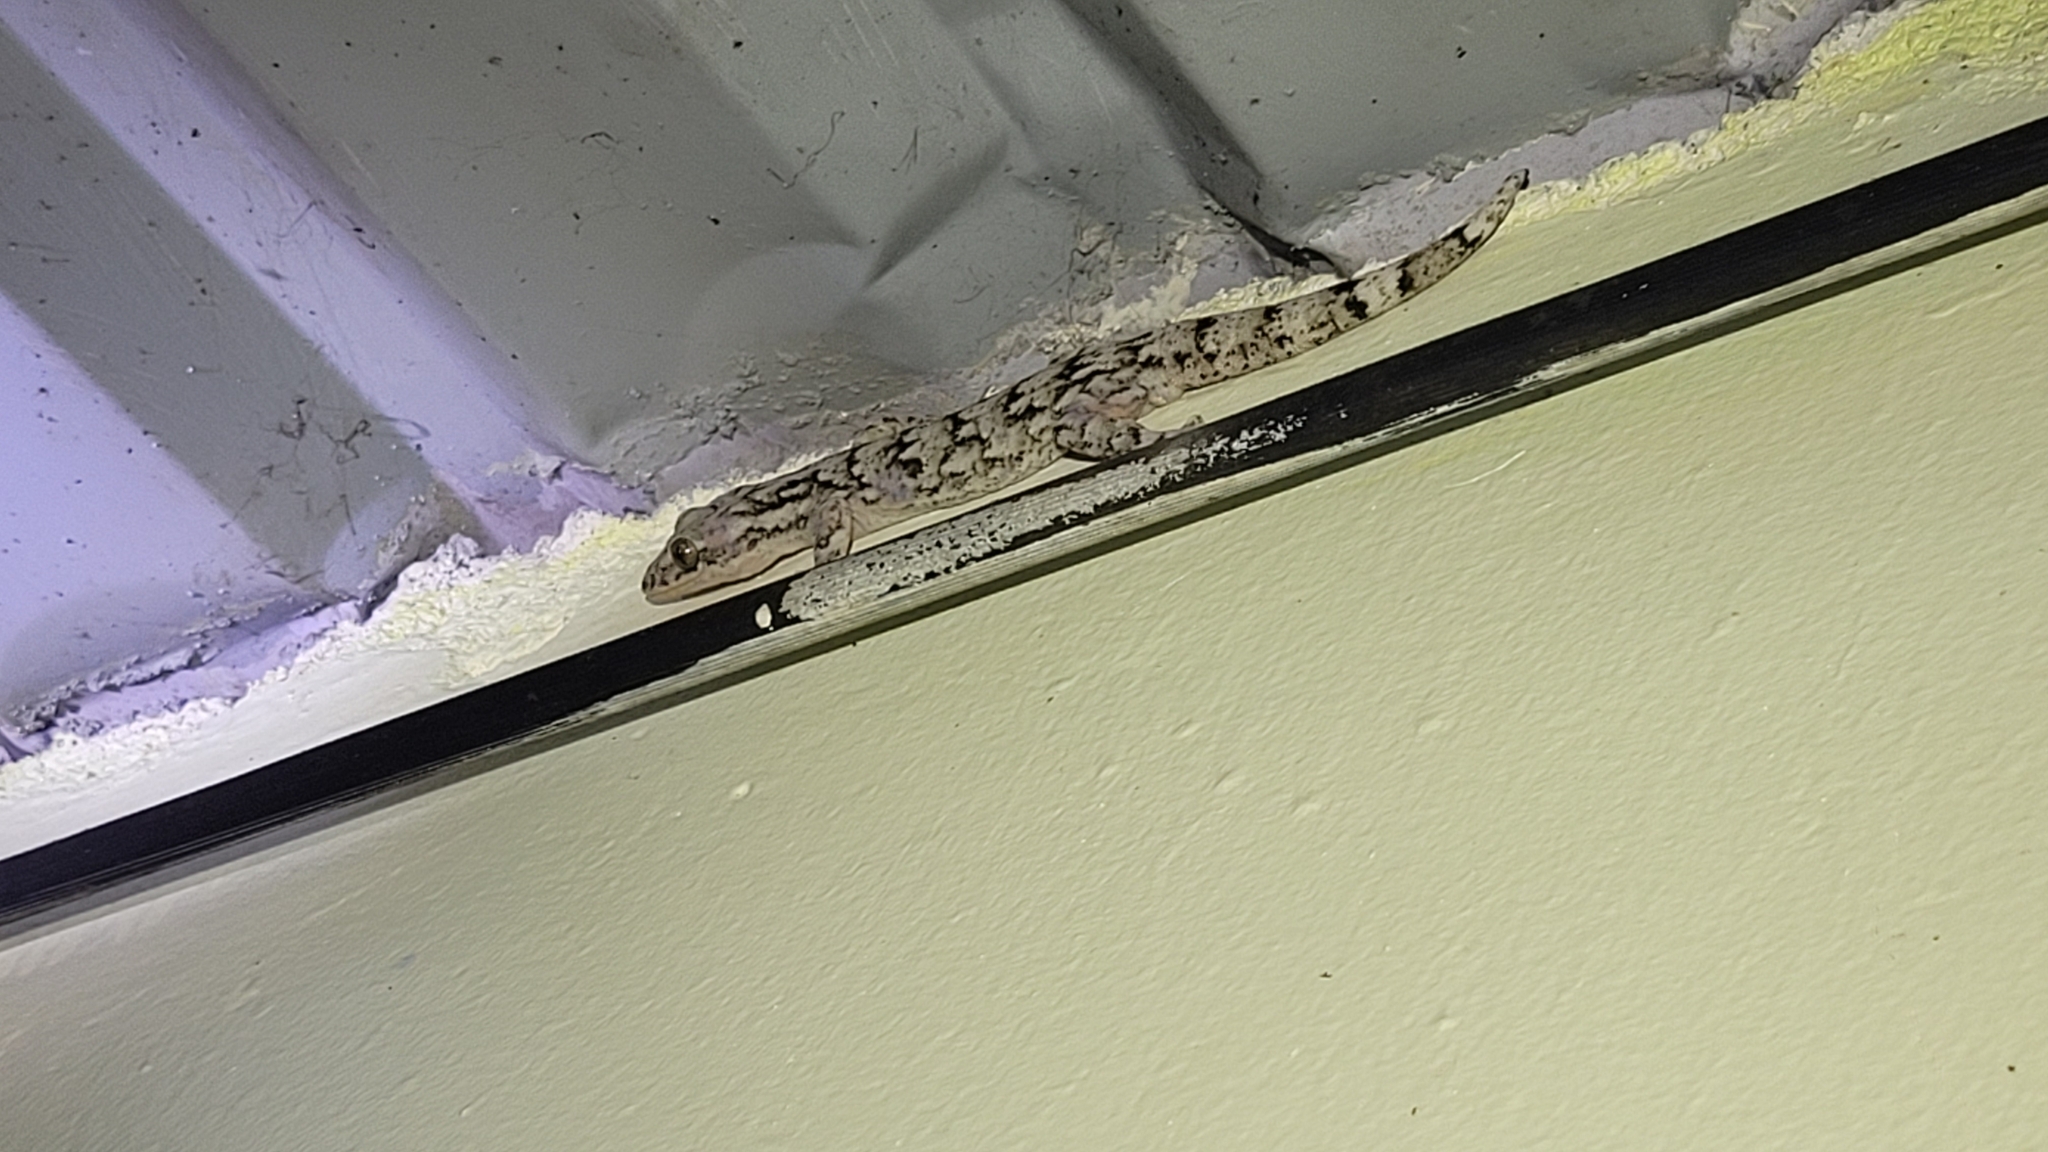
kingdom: Animalia
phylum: Chordata
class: Squamata
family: Phyllodactylidae
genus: Thecadactylus
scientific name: Thecadactylus rapicauda
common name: Turnip-tailed gecko
